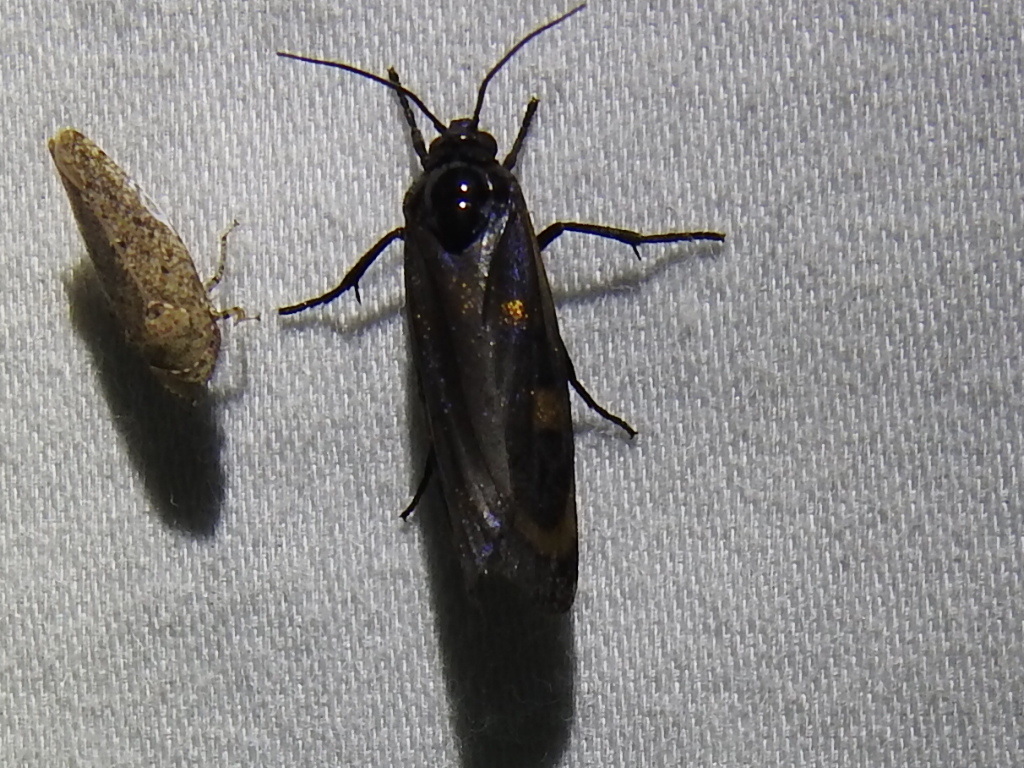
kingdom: Animalia
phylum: Arthropoda
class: Insecta
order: Lepidoptera
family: Noctuidae
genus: Cydosia
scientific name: Cydosia aurivitta
